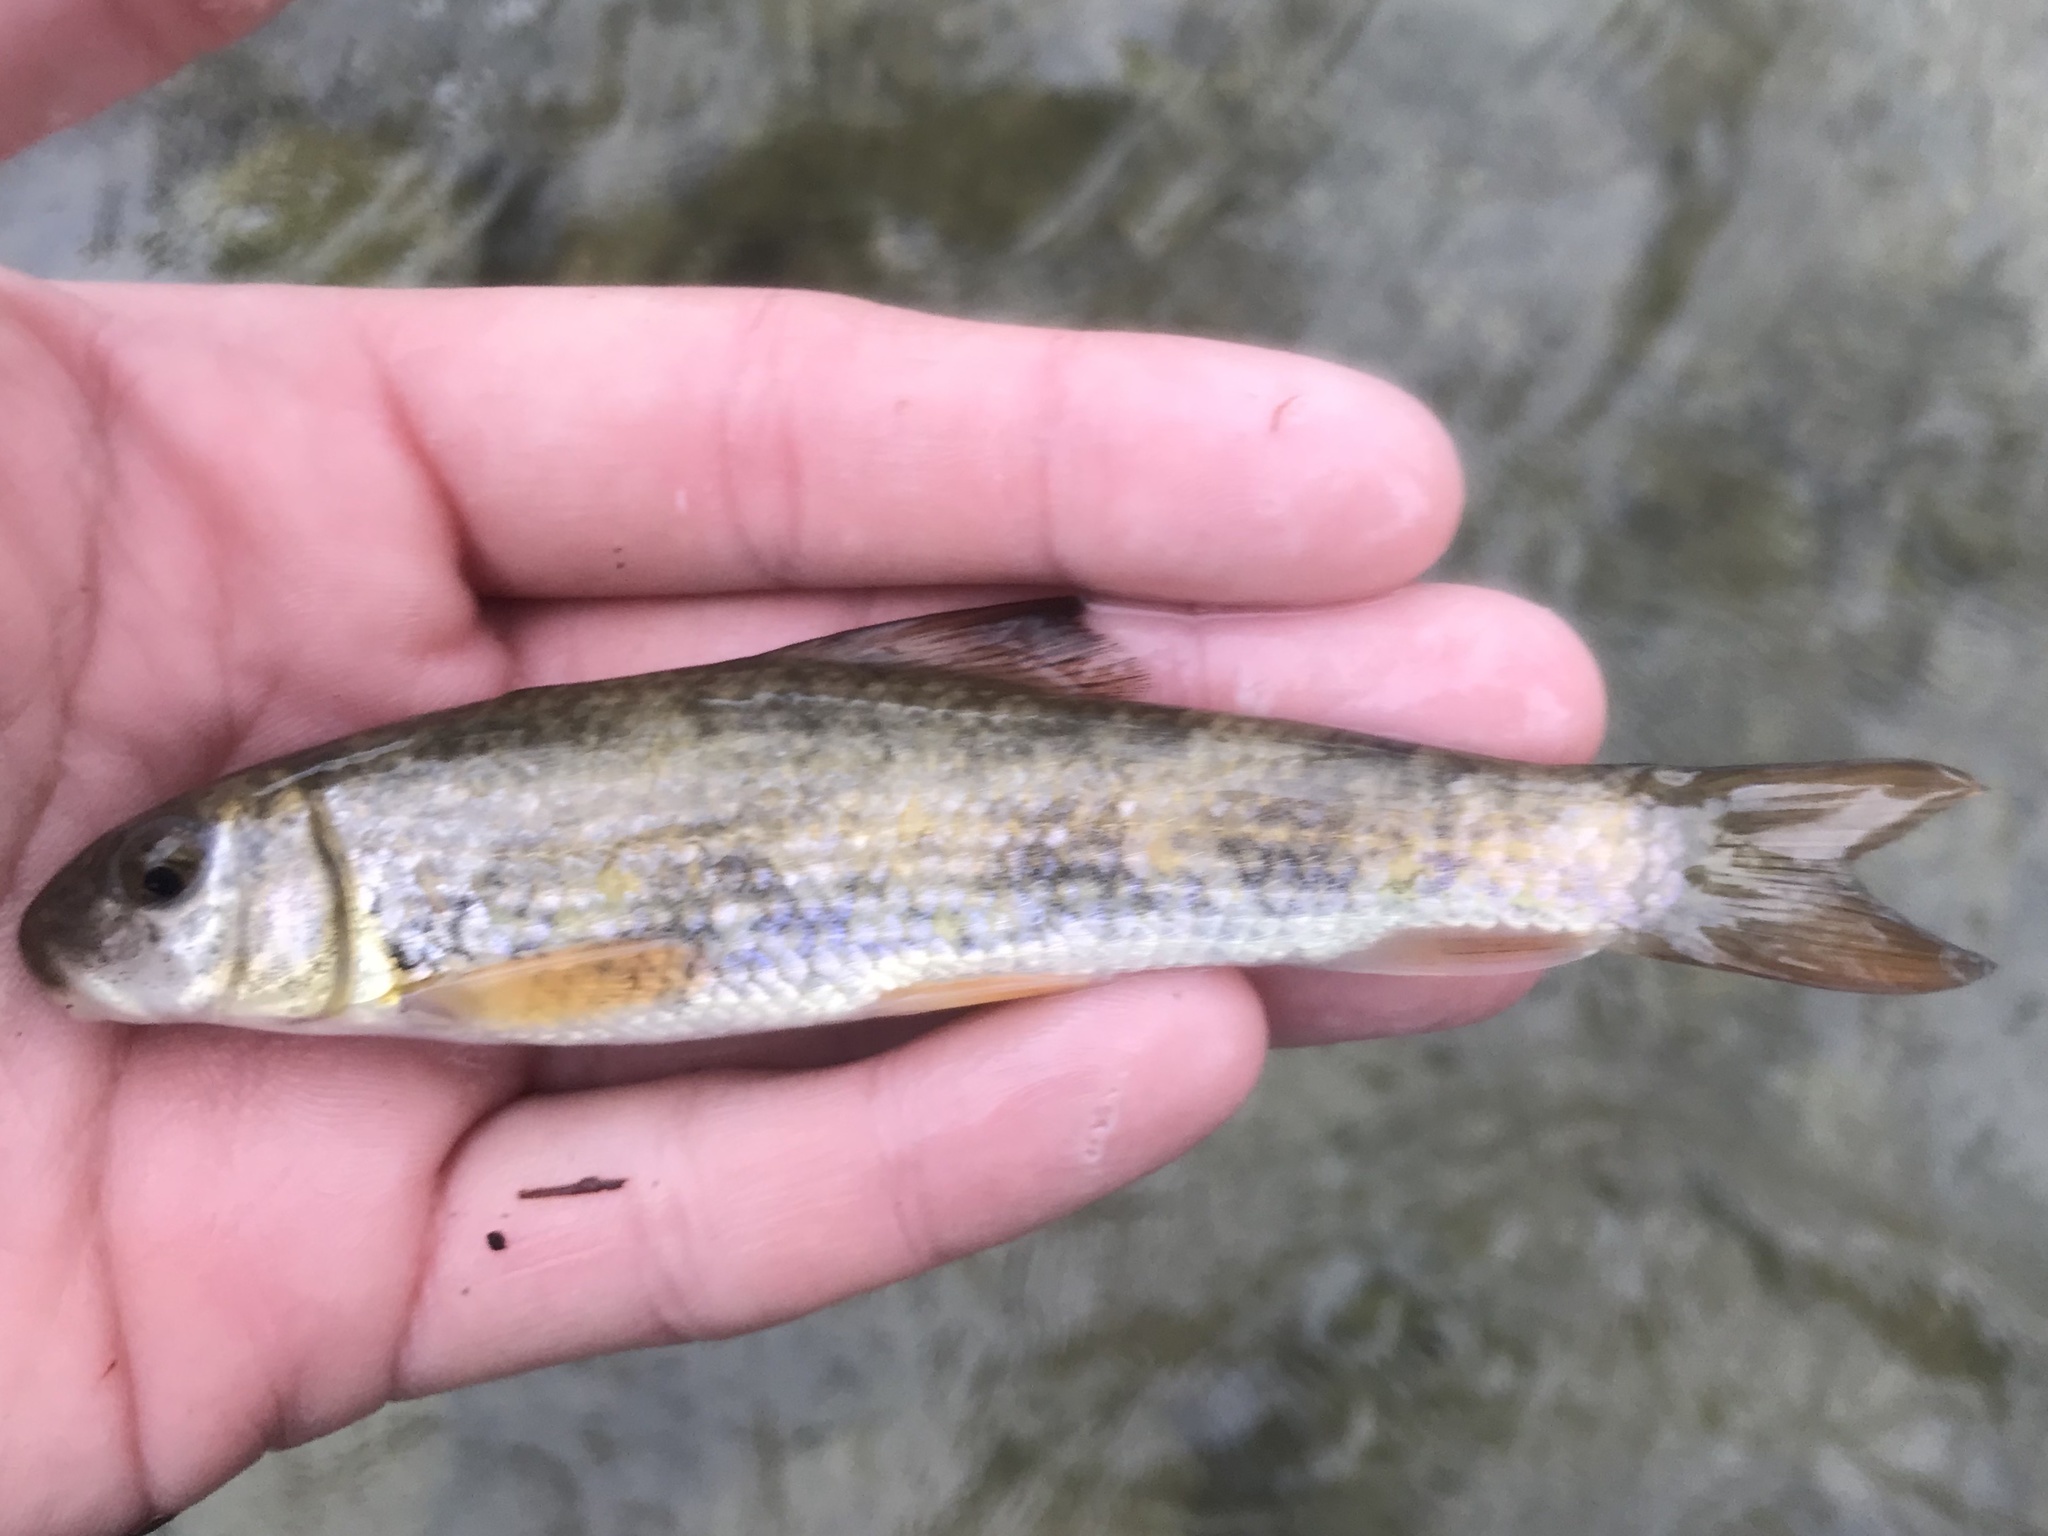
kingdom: Animalia
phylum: Chordata
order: Cypriniformes
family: Catostomidae
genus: Moxostoma
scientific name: Moxostoma congestum
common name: Gray redhorse
